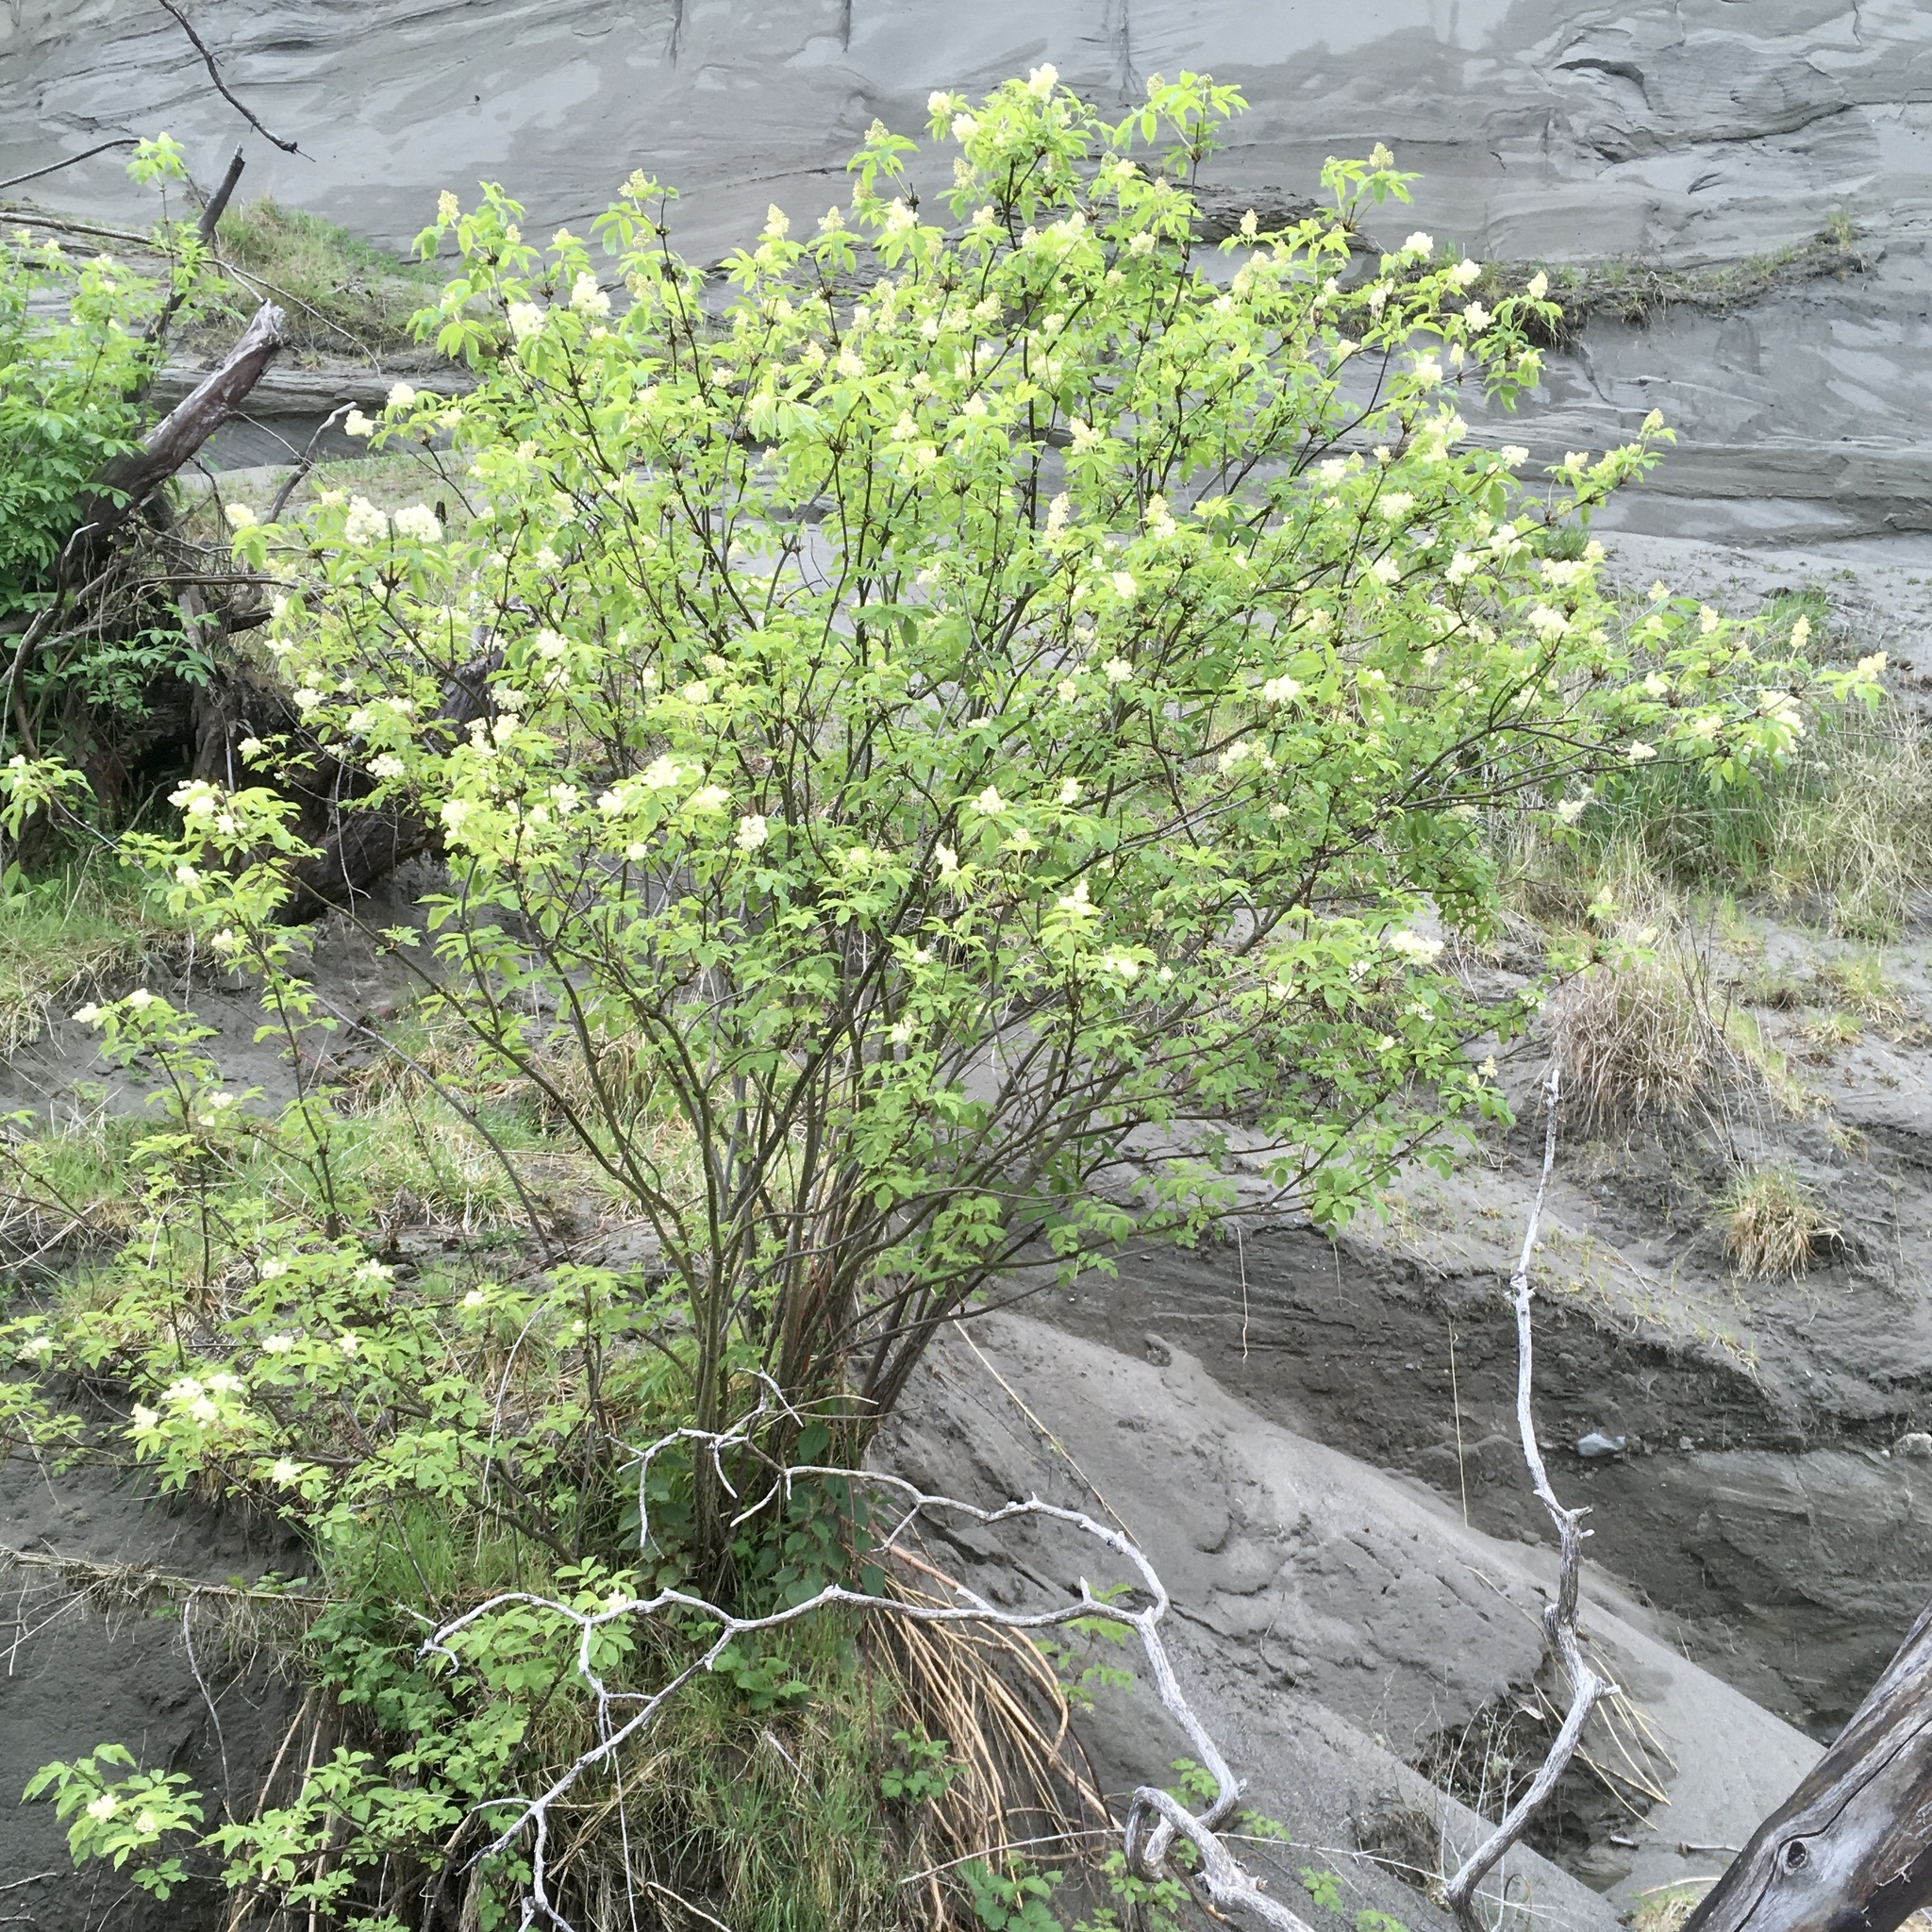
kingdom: Plantae
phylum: Tracheophyta
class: Magnoliopsida
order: Dipsacales
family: Viburnaceae
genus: Sambucus
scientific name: Sambucus racemosa
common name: Red-berried elder
